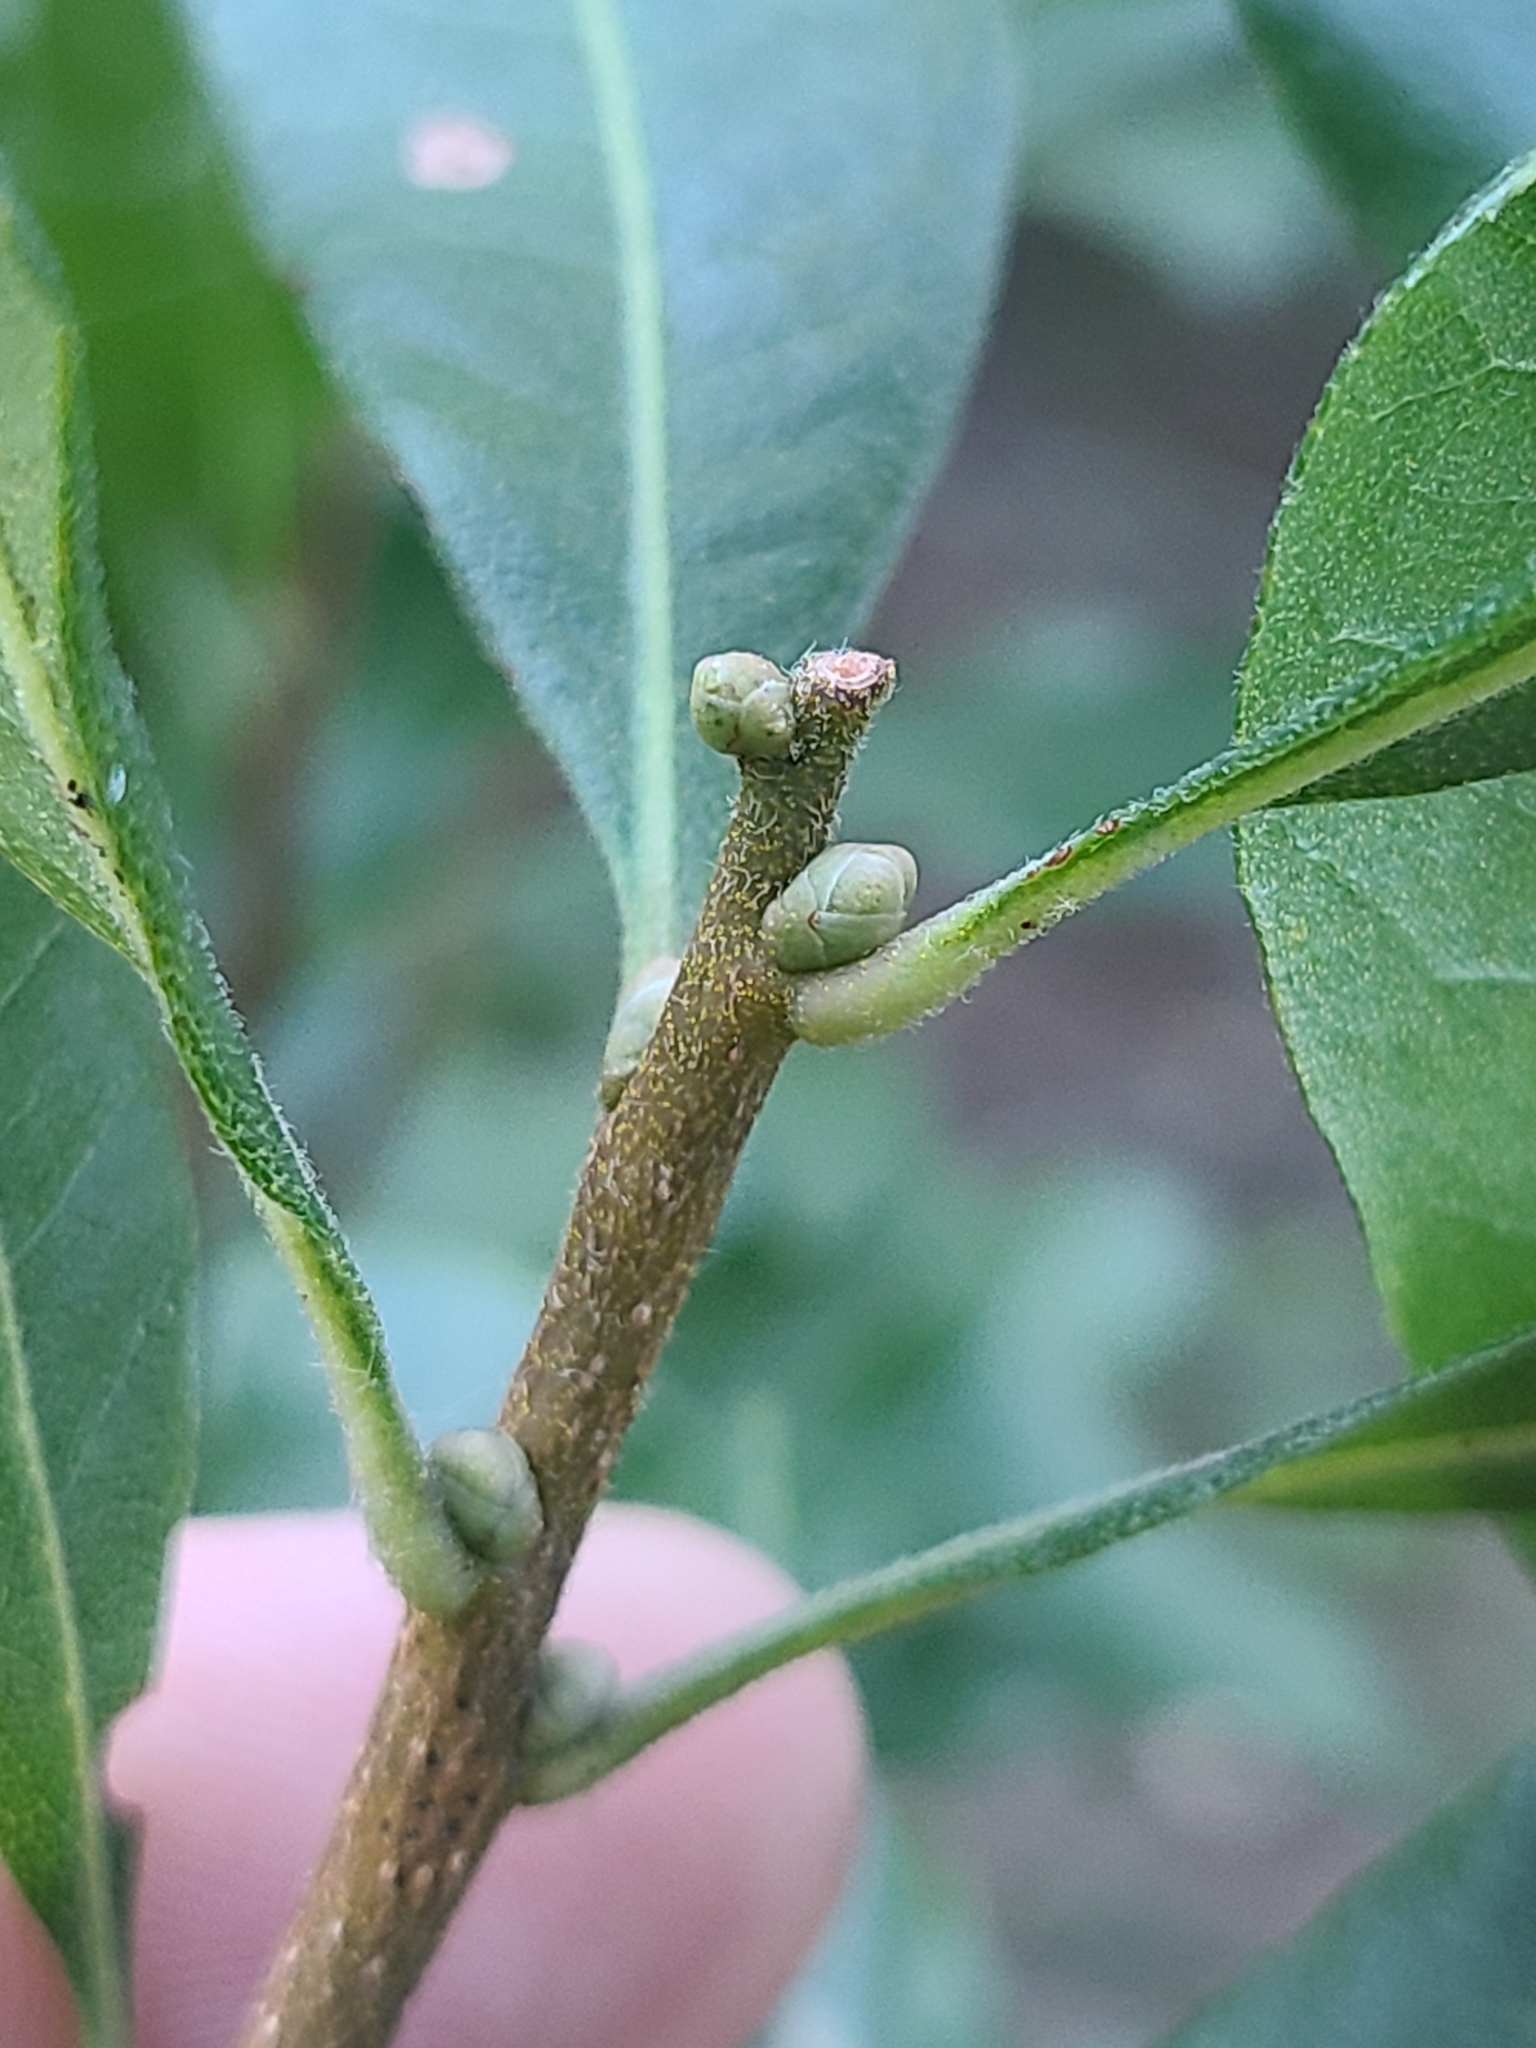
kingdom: Plantae
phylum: Tracheophyta
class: Magnoliopsida
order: Fagales
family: Myricaceae
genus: Morella
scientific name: Morella pensylvanica
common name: Northern bayberry
